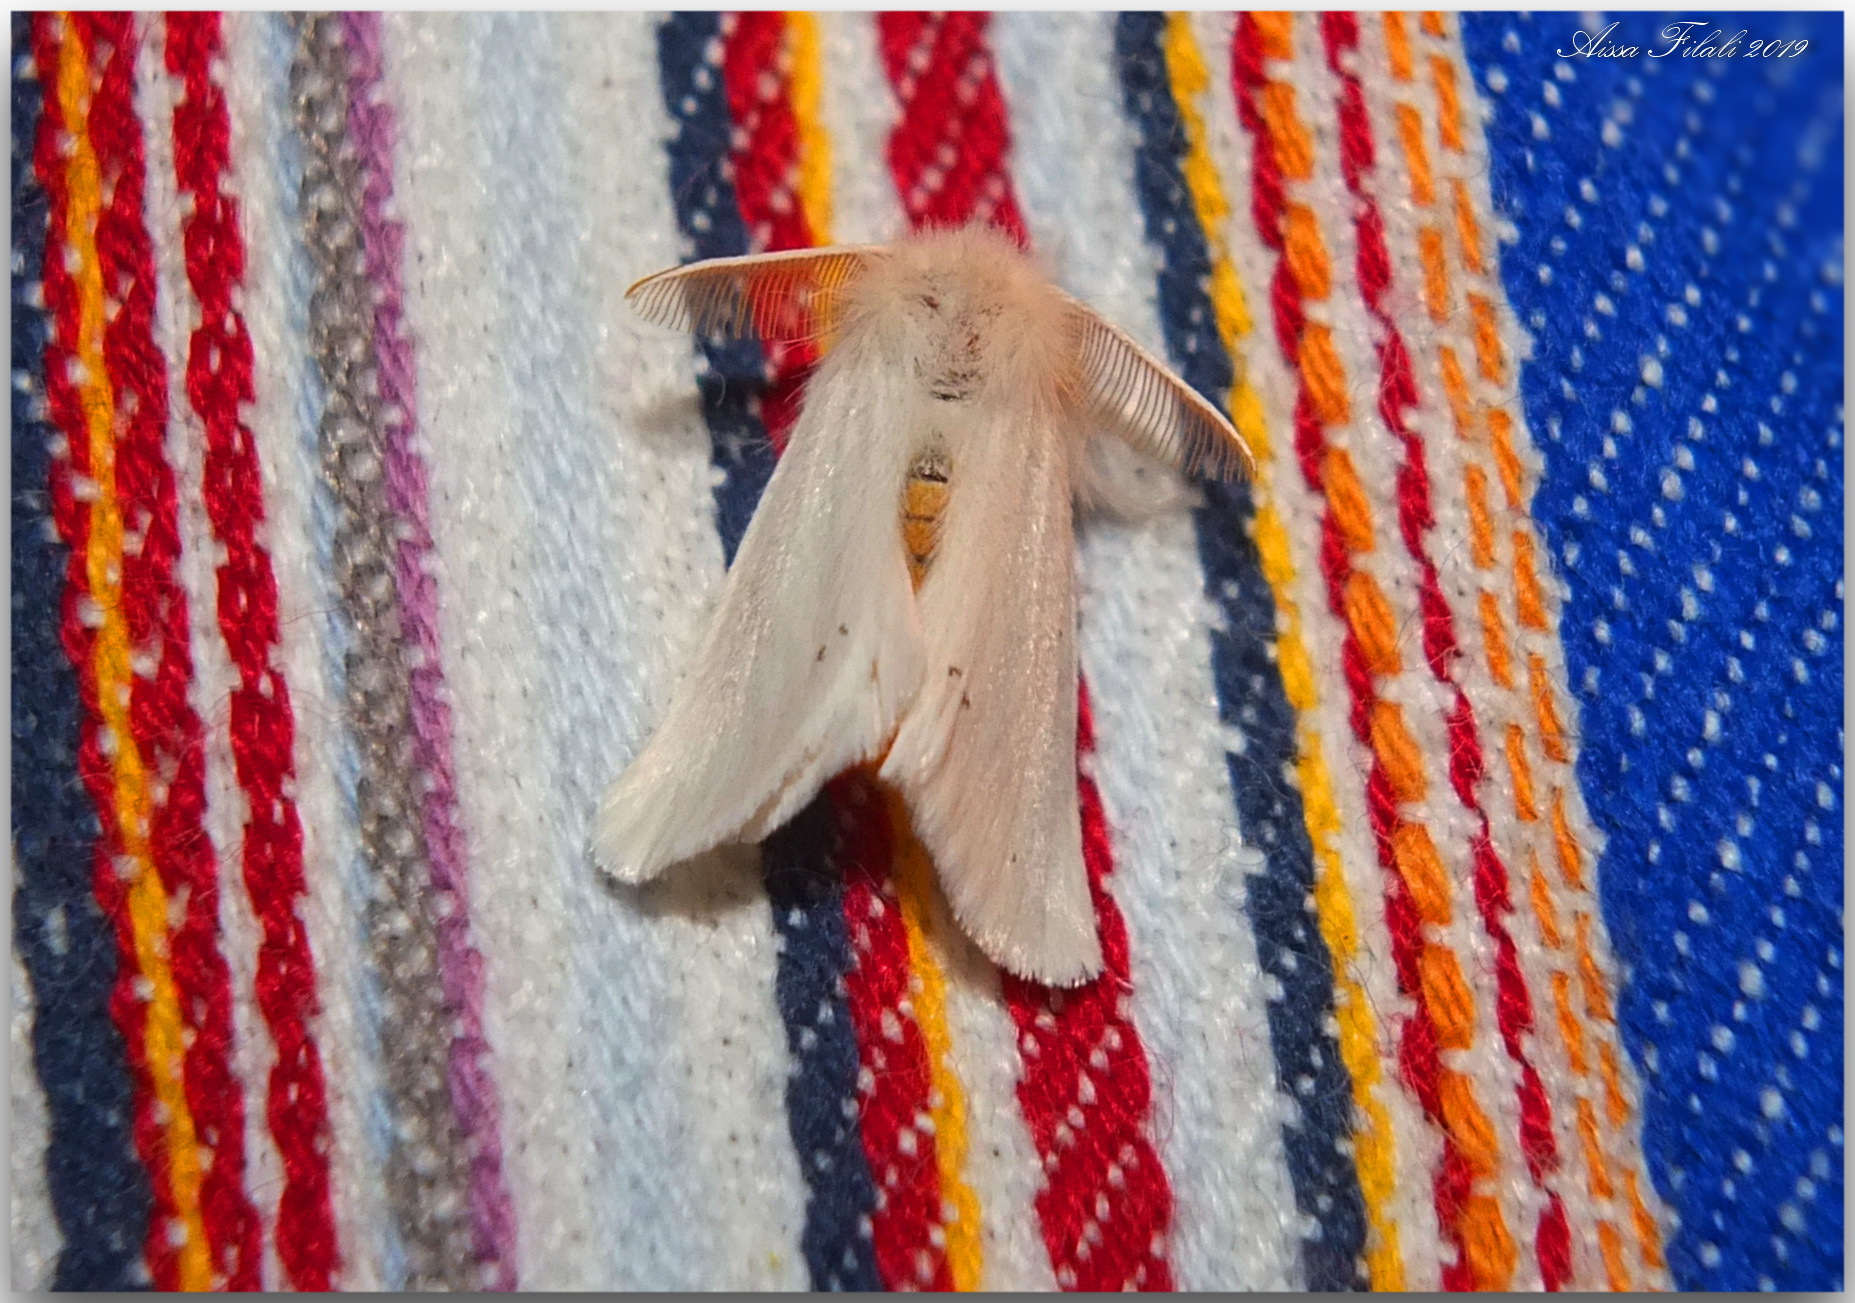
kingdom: Animalia
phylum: Arthropoda
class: Insecta
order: Lepidoptera
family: Erebidae
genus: Euproctis
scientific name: Euproctis chrysorrhoea
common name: Brown-tail
